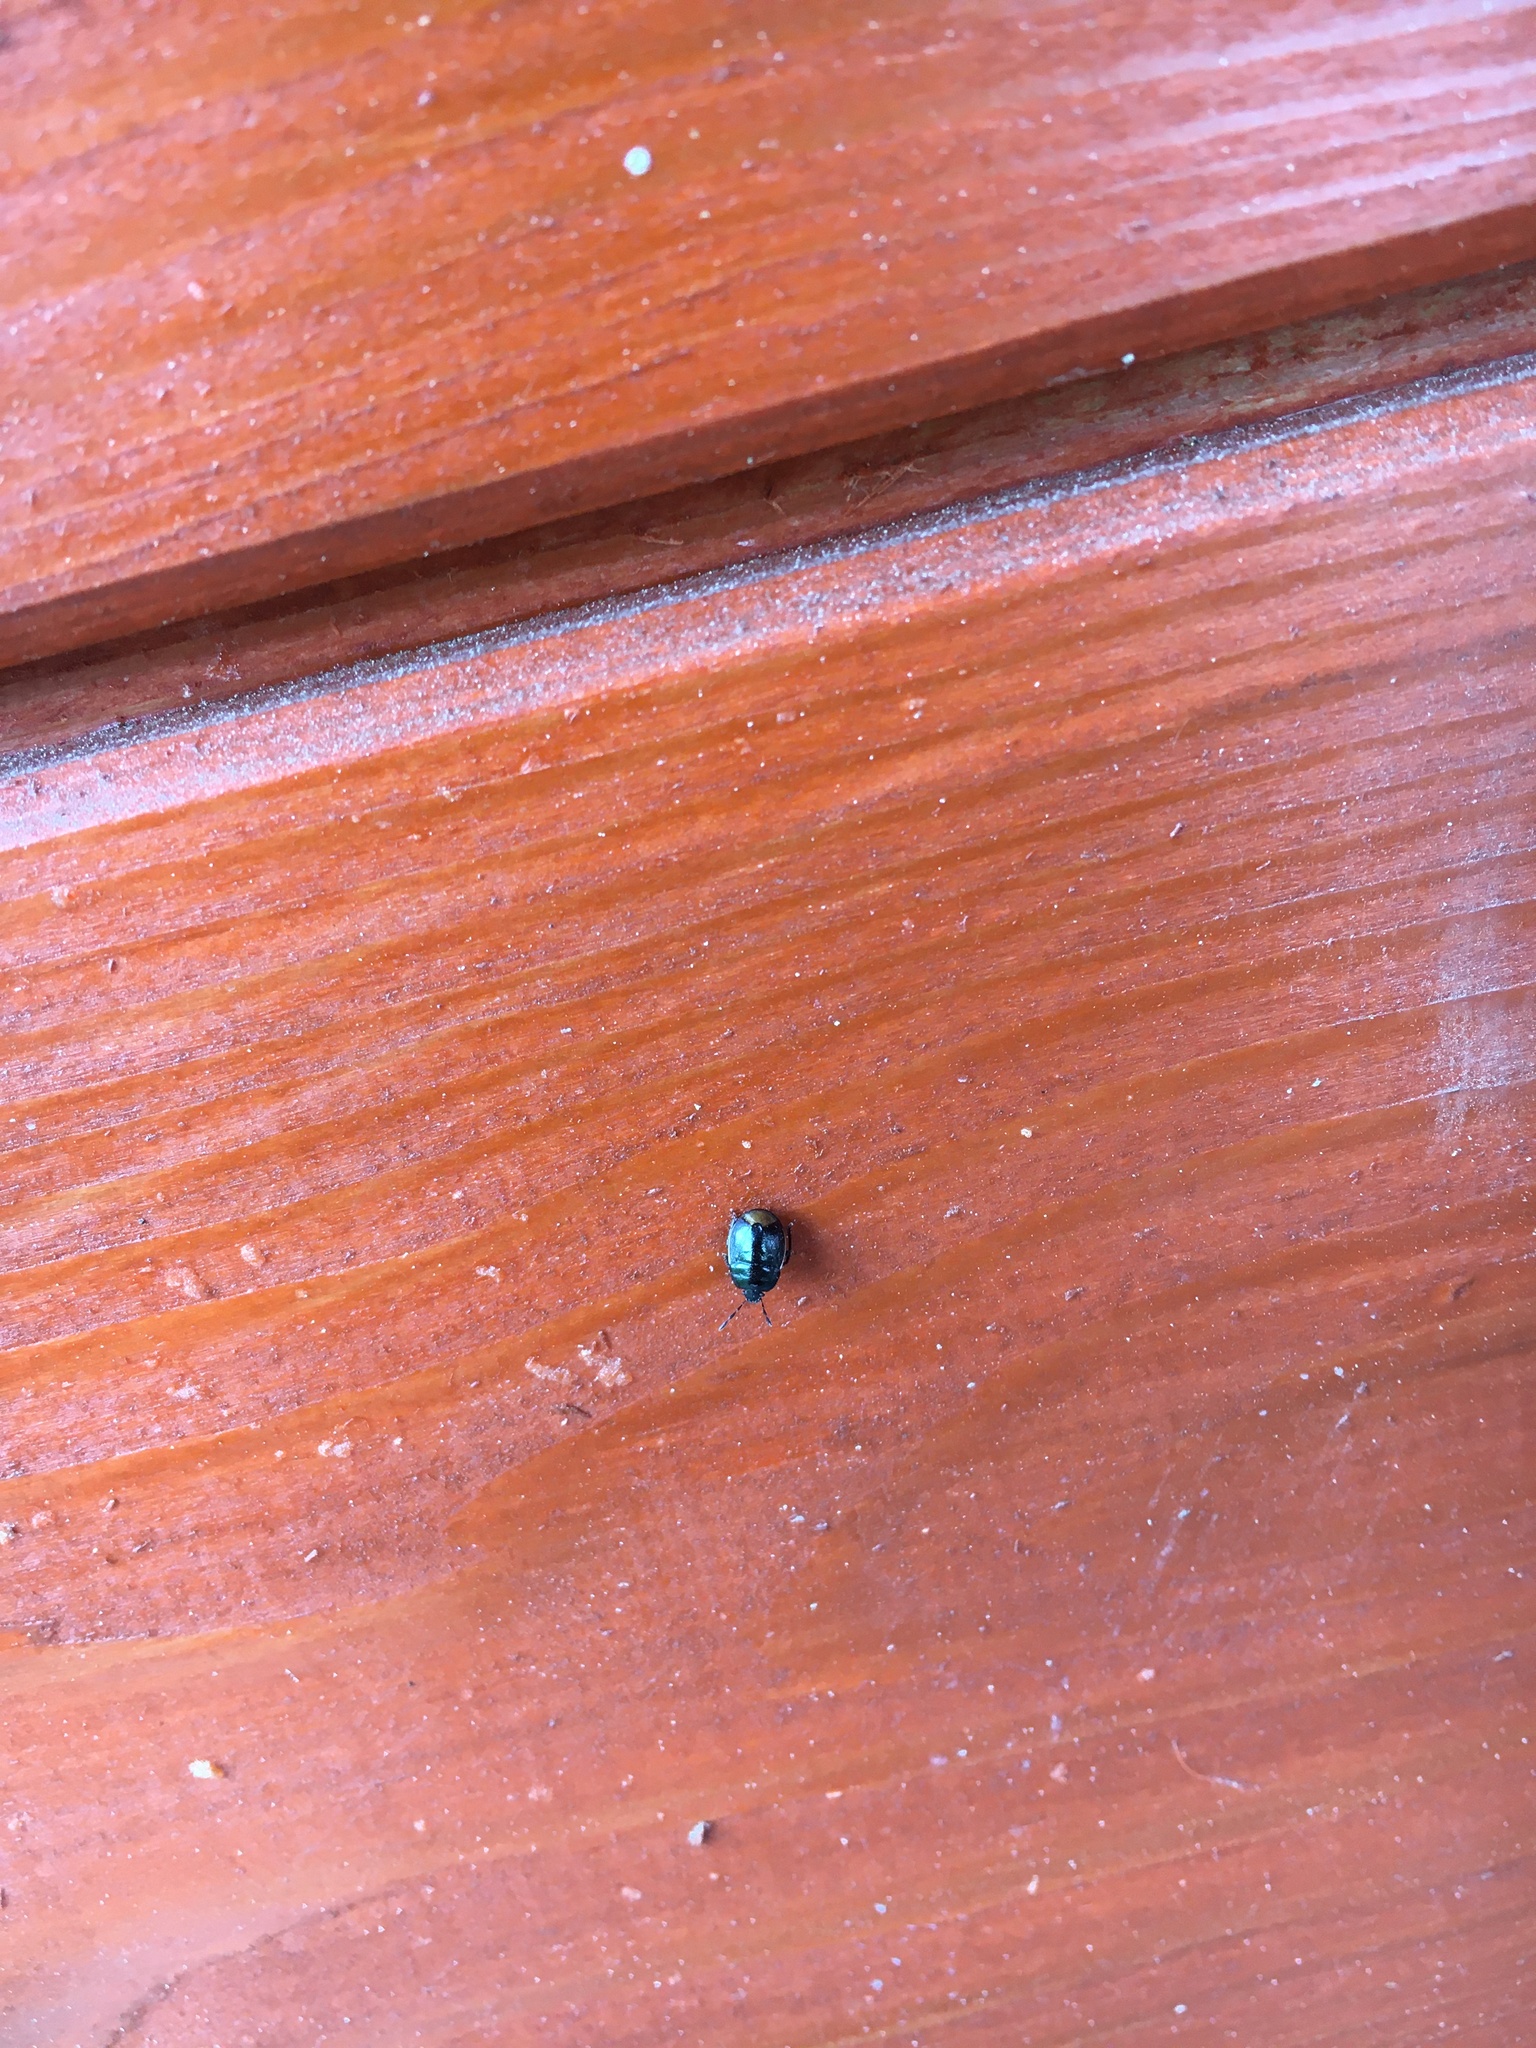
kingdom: Animalia
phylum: Arthropoda
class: Insecta
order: Hemiptera
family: Cydnidae
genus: Legnotus
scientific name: Legnotus limbosus
